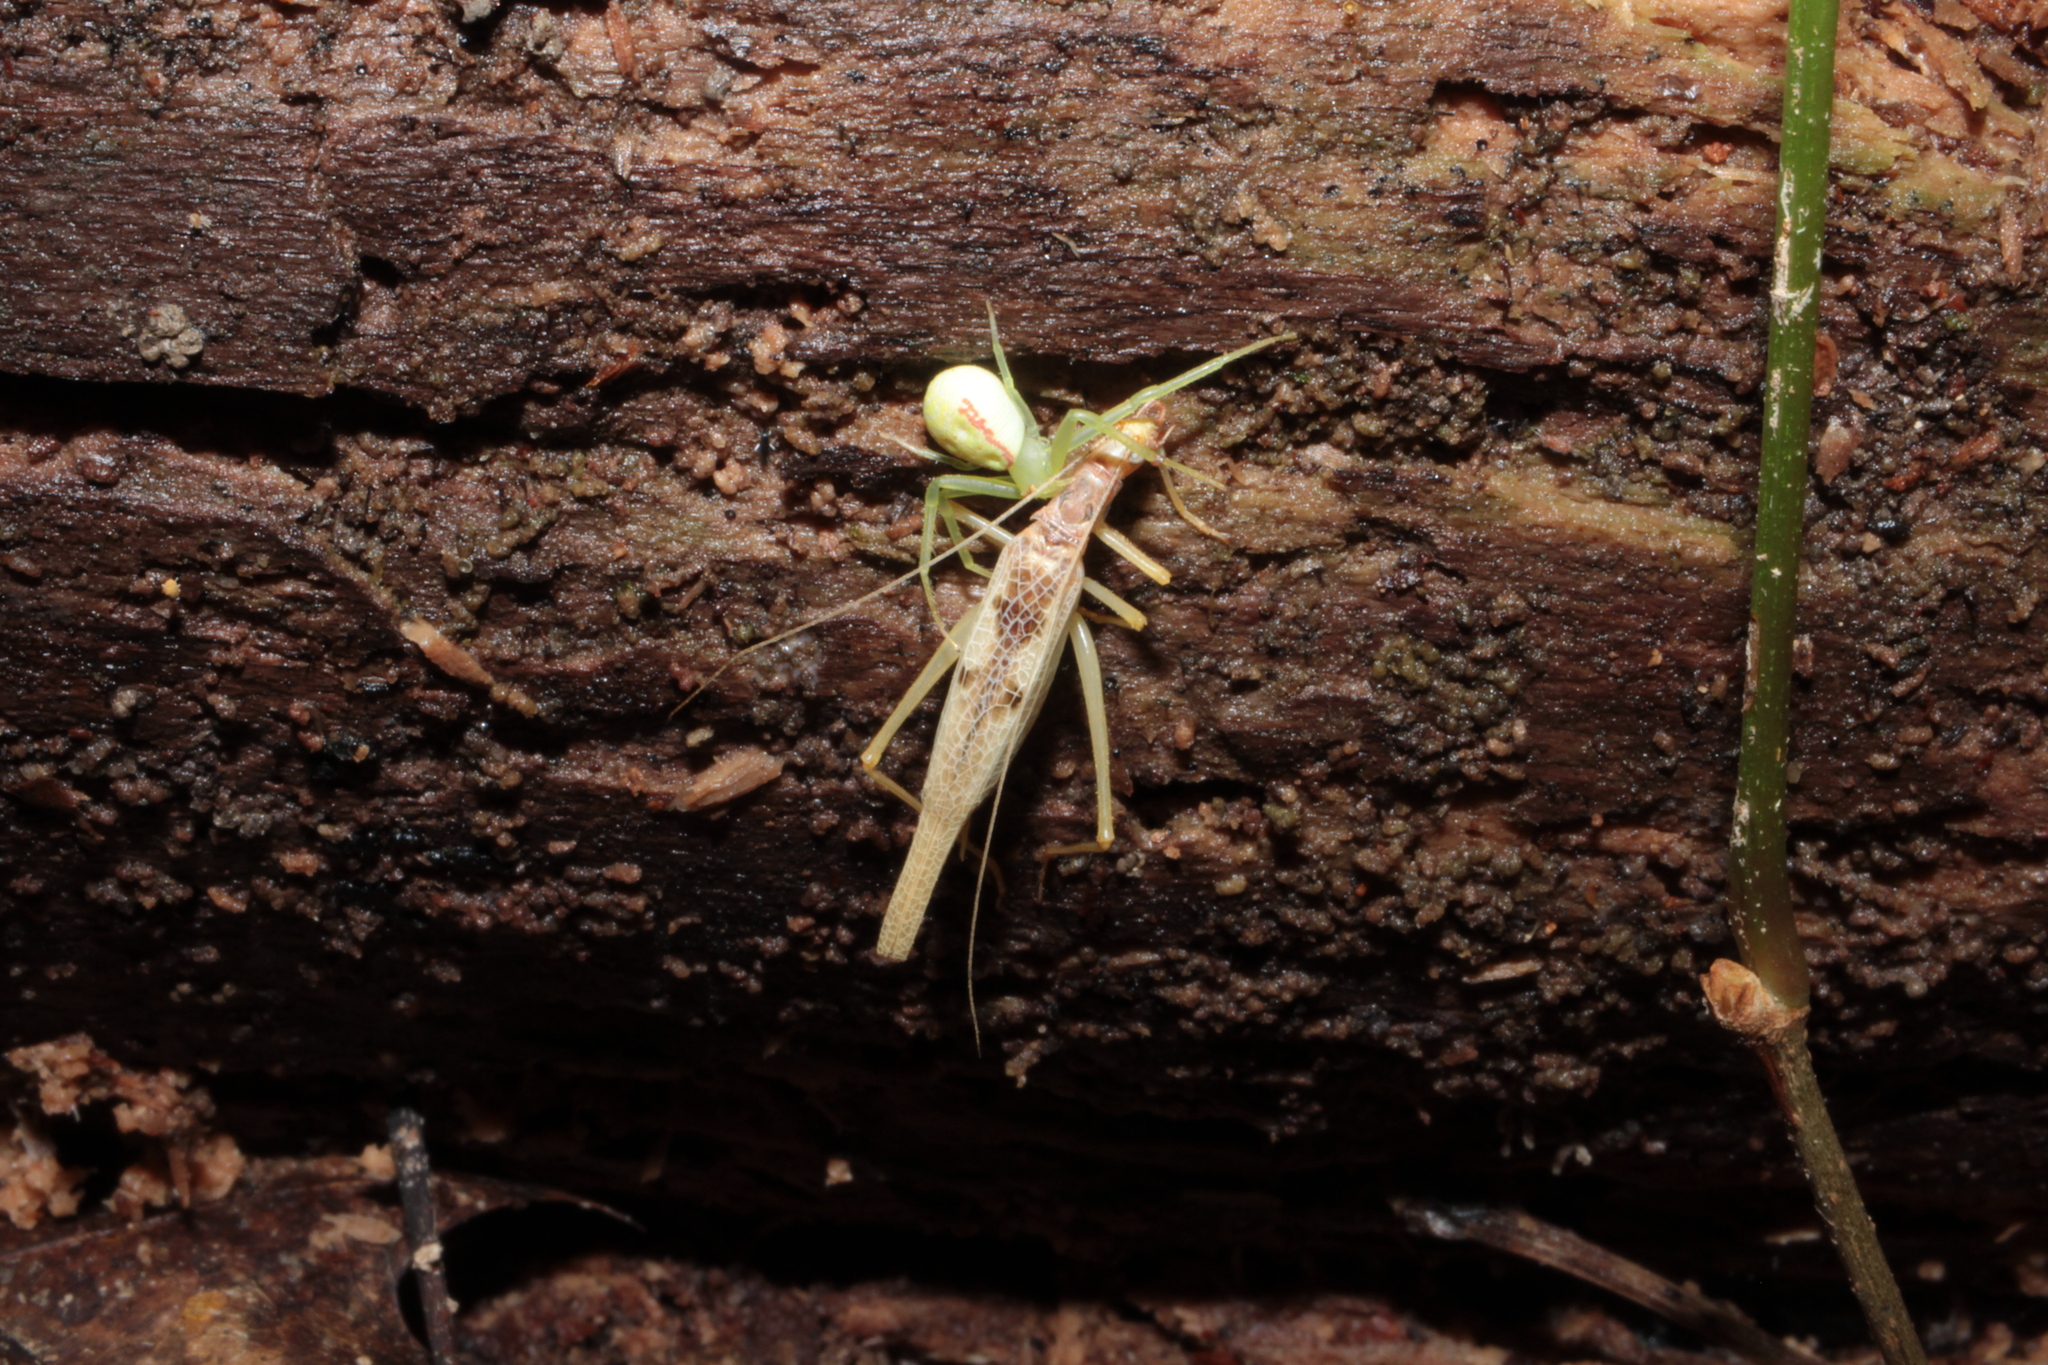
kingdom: Animalia
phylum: Arthropoda
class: Insecta
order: Orthoptera
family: Gryllidae
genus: Neoxabea
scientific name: Neoxabea bipunctata
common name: Two-spotted tree cricket
